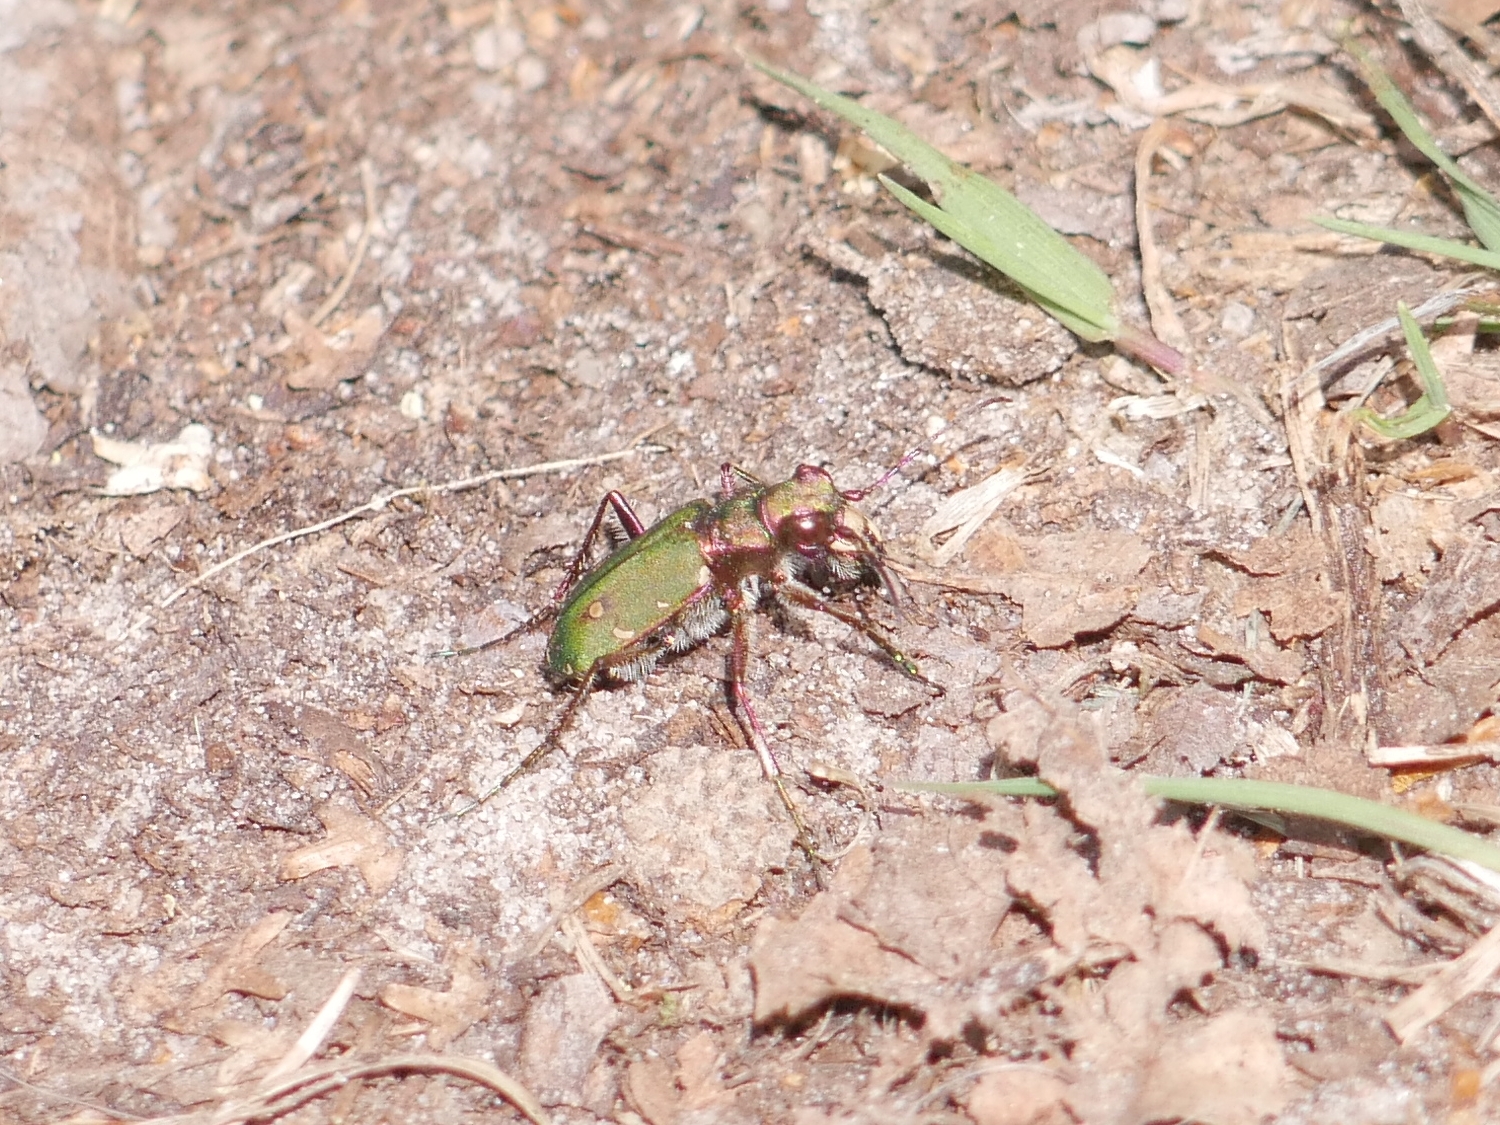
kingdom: Animalia
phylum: Arthropoda
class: Insecta
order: Coleoptera
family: Carabidae
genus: Cicindela
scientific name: Cicindela campestris
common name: Common tiger beetle
